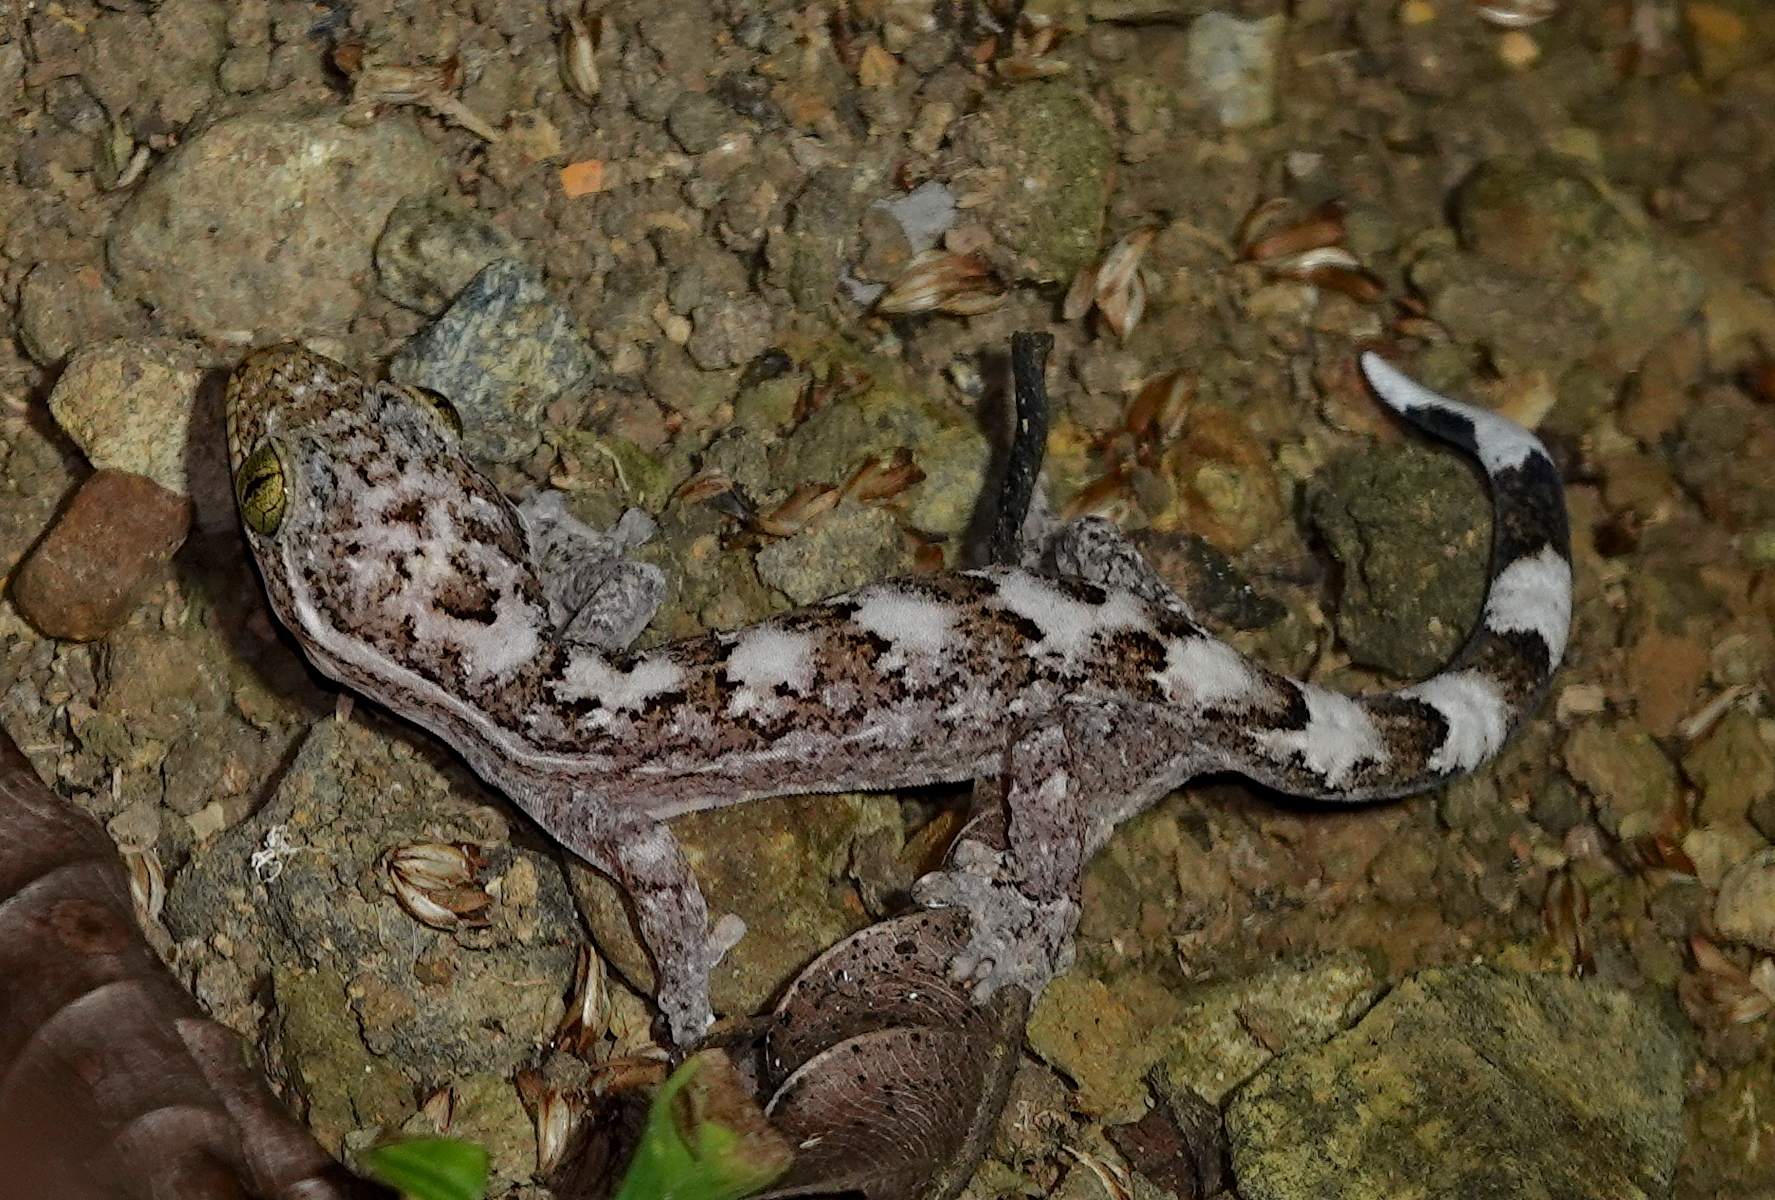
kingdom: Animalia
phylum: Chordata
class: Squamata
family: Phyllodactylidae
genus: Thecadactylus
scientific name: Thecadactylus rapicauda
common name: Turnip-tailed gecko
